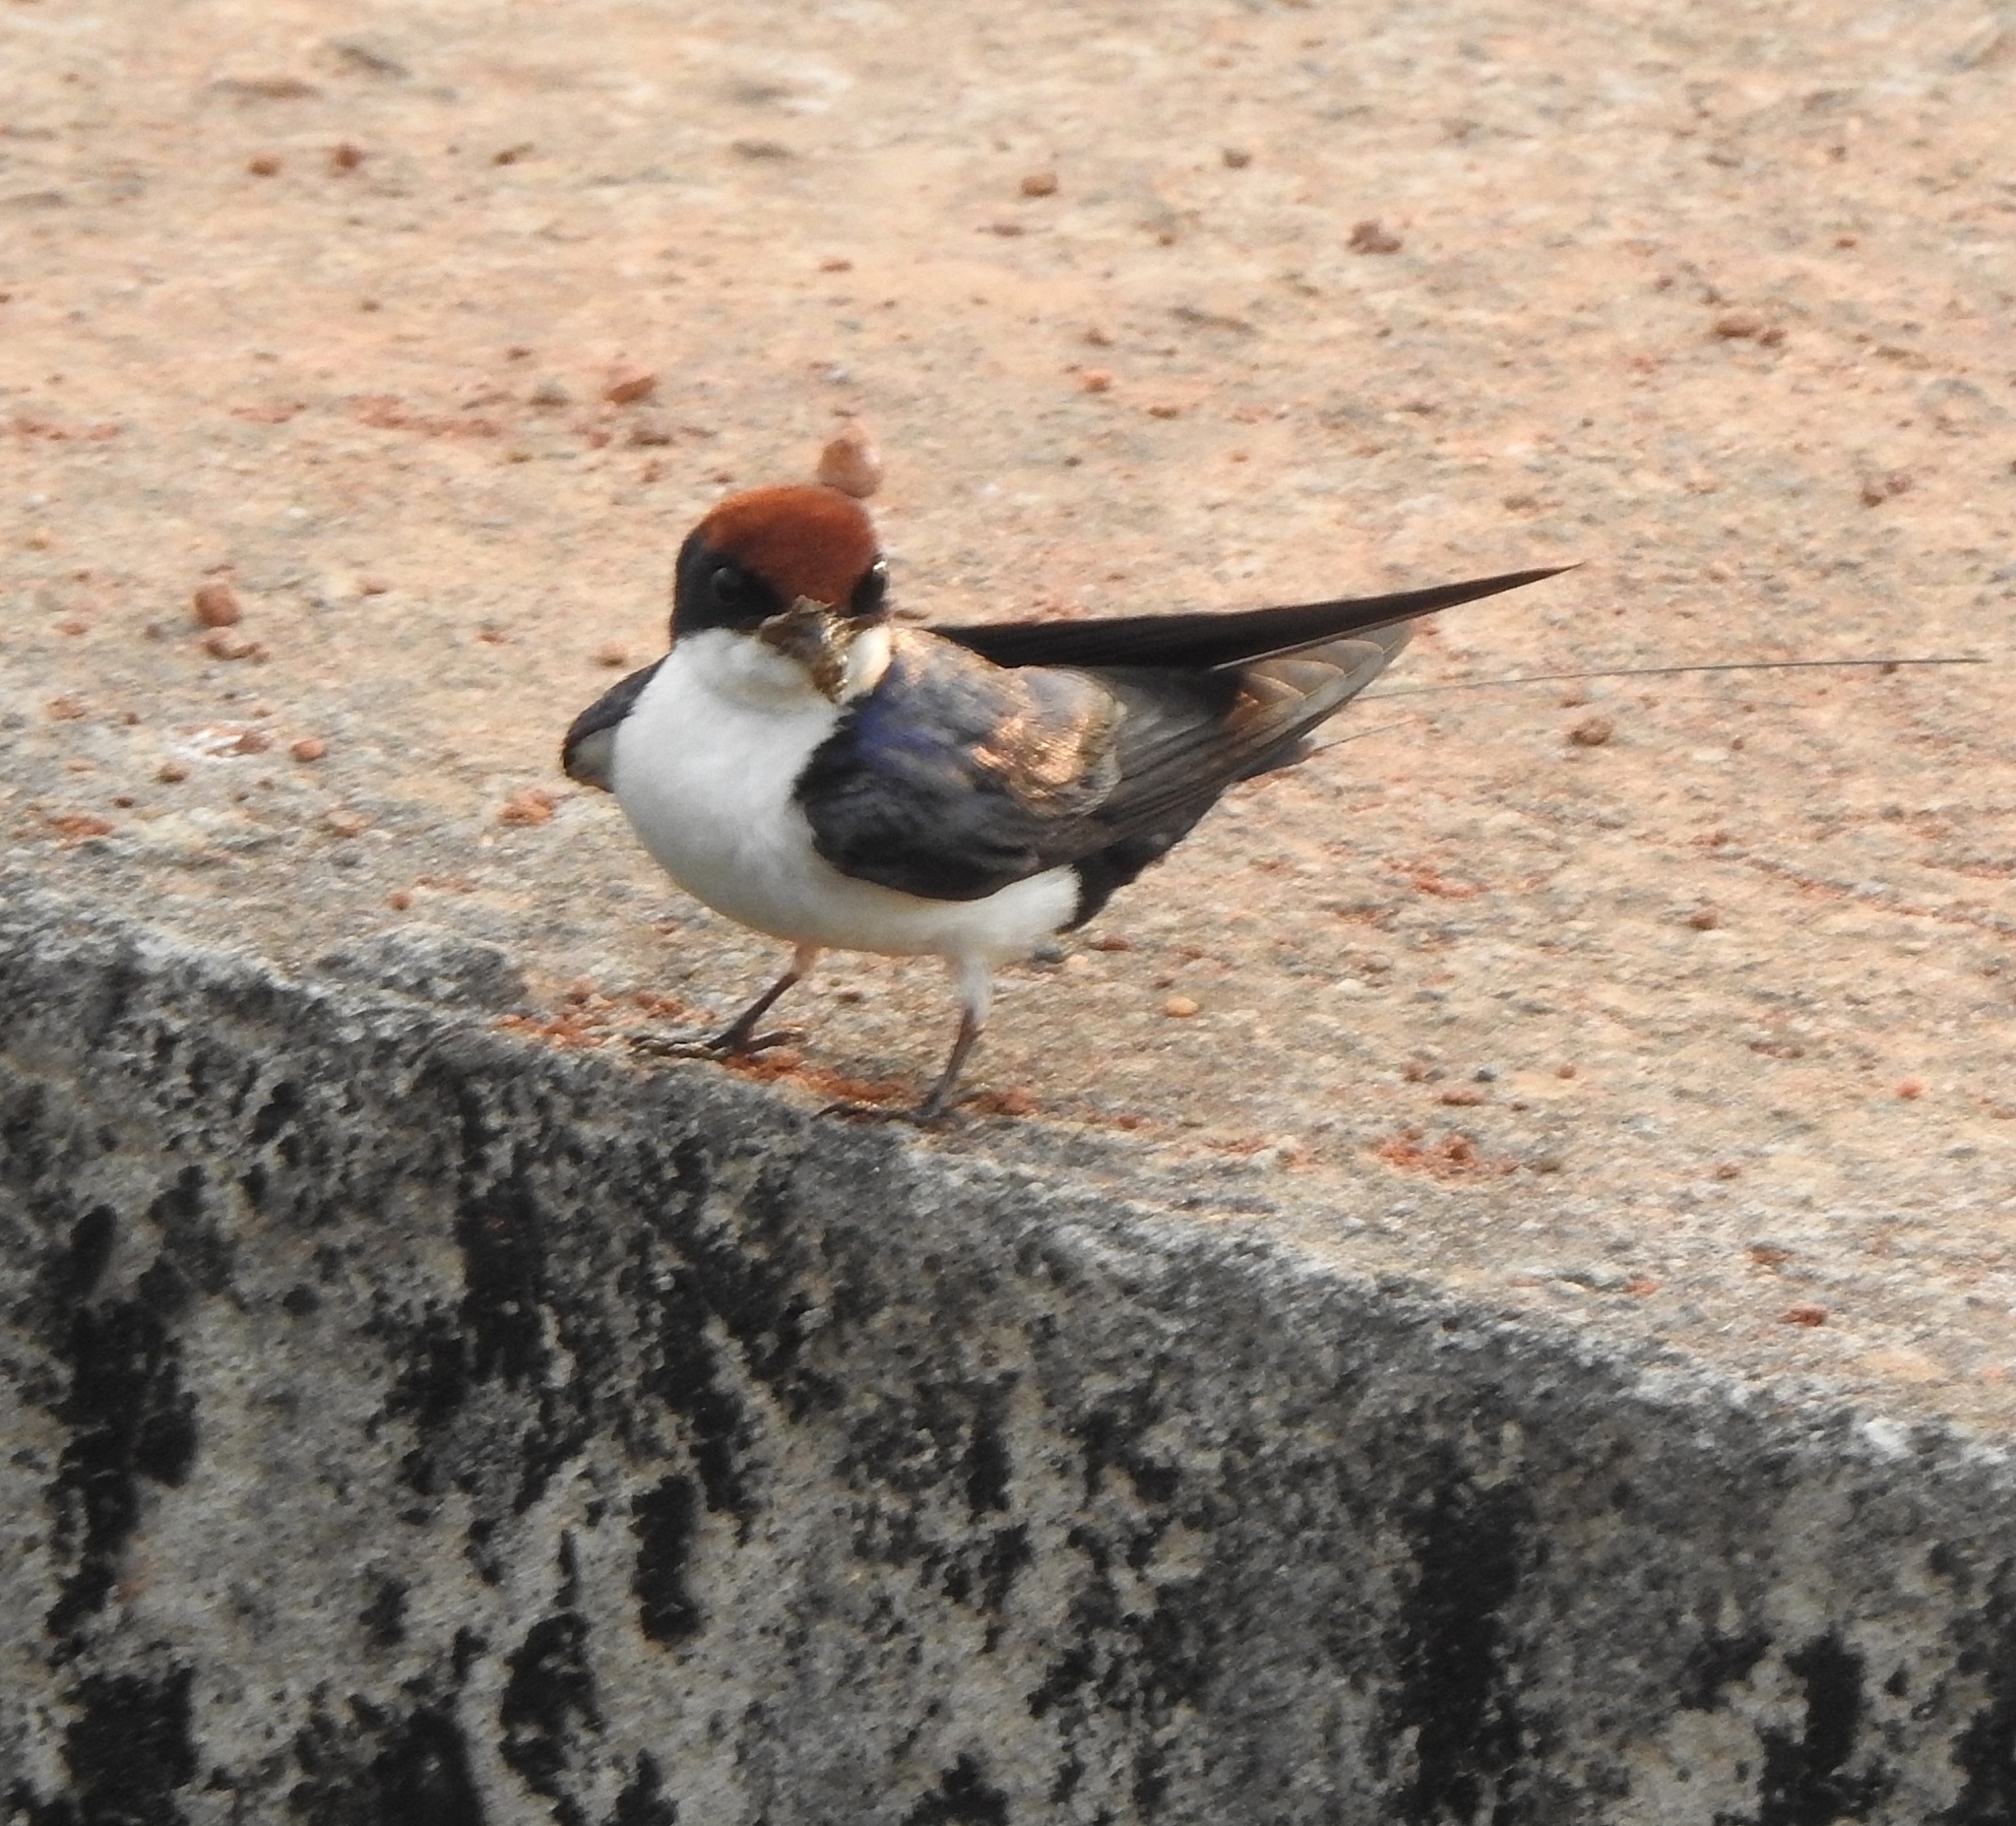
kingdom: Animalia
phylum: Chordata
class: Aves
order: Passeriformes
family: Hirundinidae
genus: Hirundo
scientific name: Hirundo smithii
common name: Wire-tailed swallow
